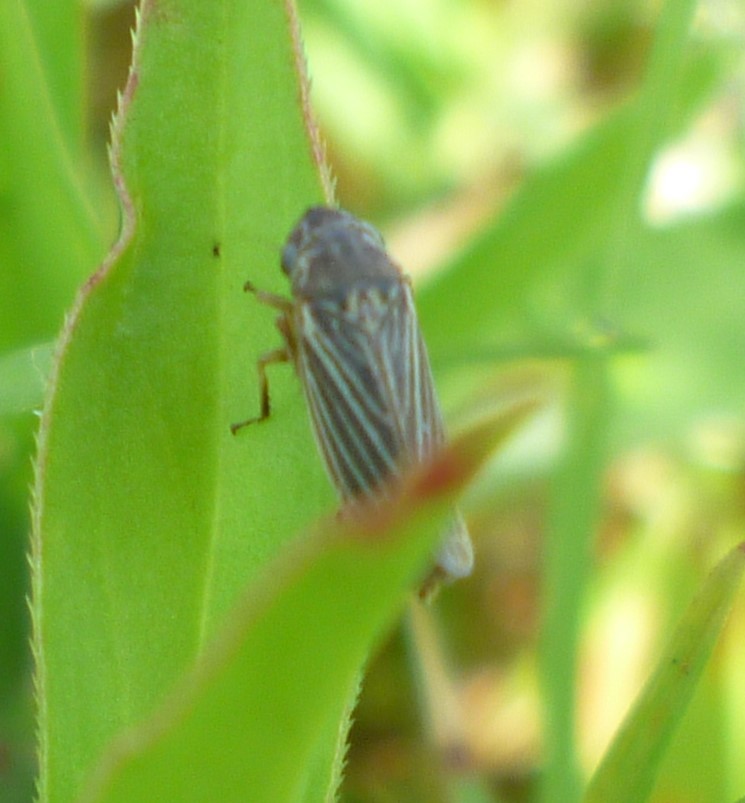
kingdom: Animalia
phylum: Arthropoda
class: Insecta
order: Hemiptera
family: Cicadellidae
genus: Ciminius
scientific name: Ciminius hartii
